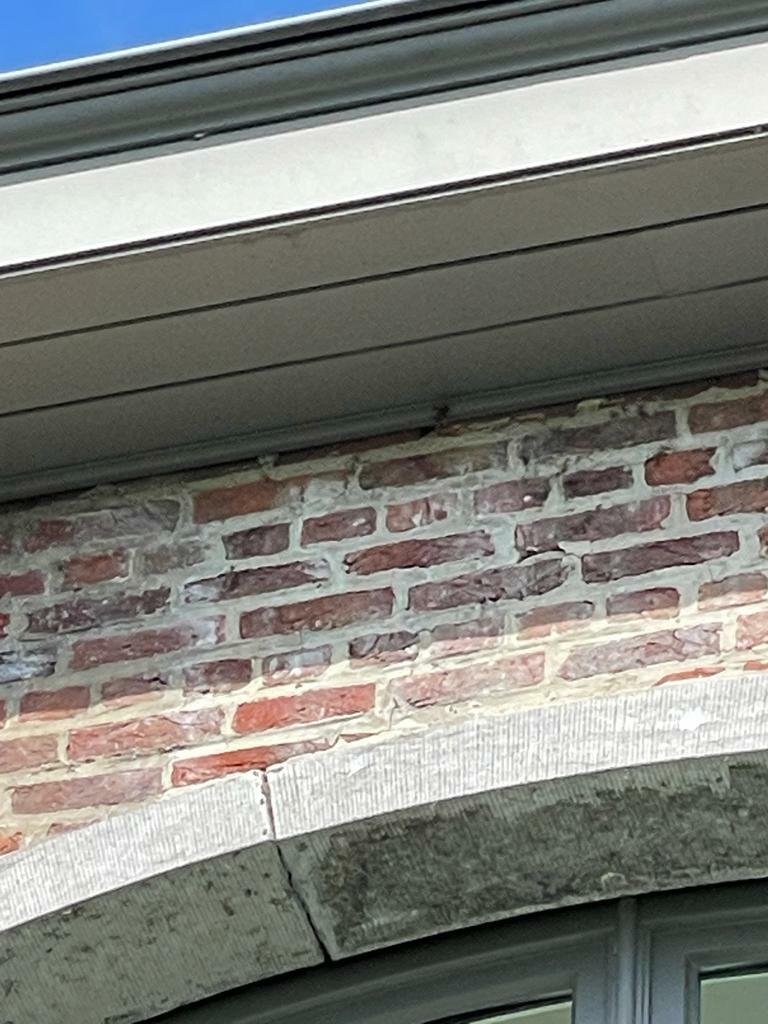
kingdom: Animalia
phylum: Arthropoda
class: Insecta
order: Hymenoptera
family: Vespidae
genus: Vespa
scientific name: Vespa velutina
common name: Asian hornet
